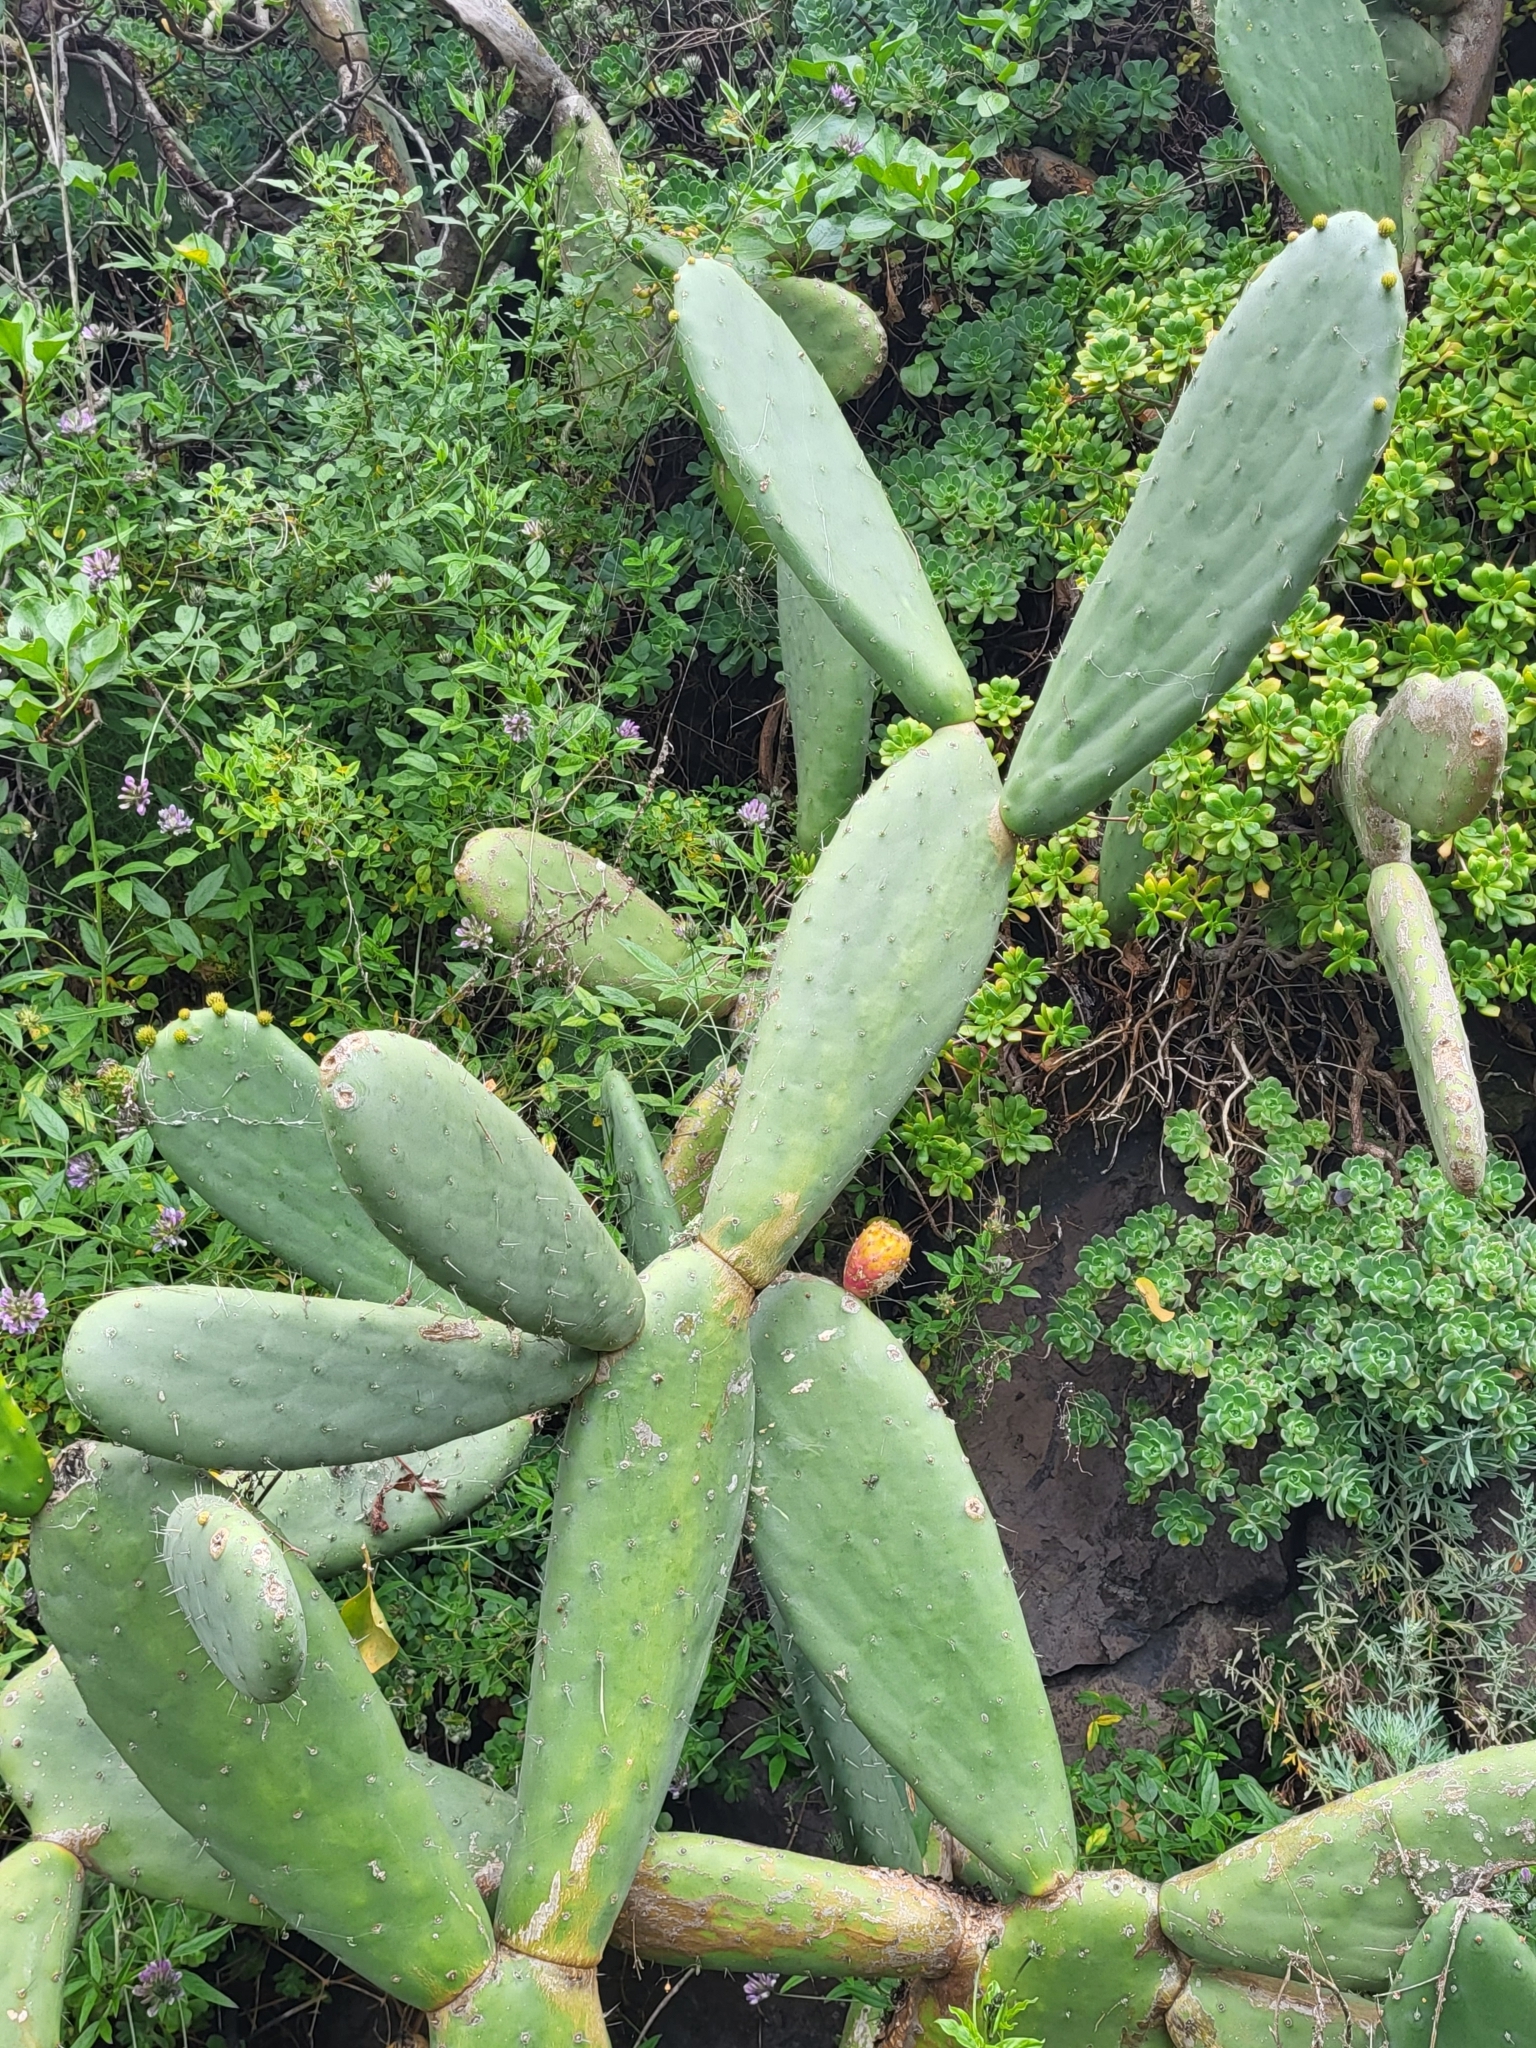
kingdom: Plantae
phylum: Tracheophyta
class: Magnoliopsida
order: Caryophyllales
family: Cactaceae
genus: Opuntia
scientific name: Opuntia ficus-indica
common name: Barbary fig
